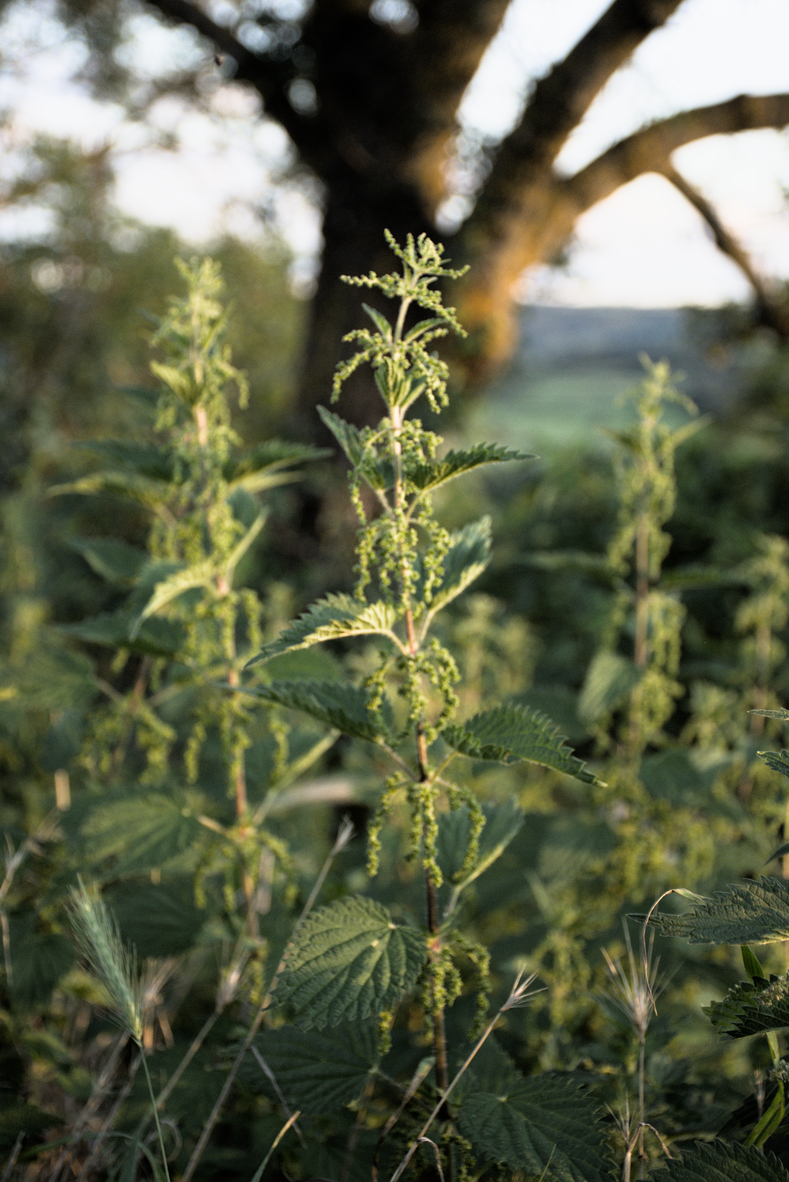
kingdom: Plantae
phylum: Tracheophyta
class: Magnoliopsida
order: Rosales
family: Urticaceae
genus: Urtica
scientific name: Urtica dioica
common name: Common nettle
